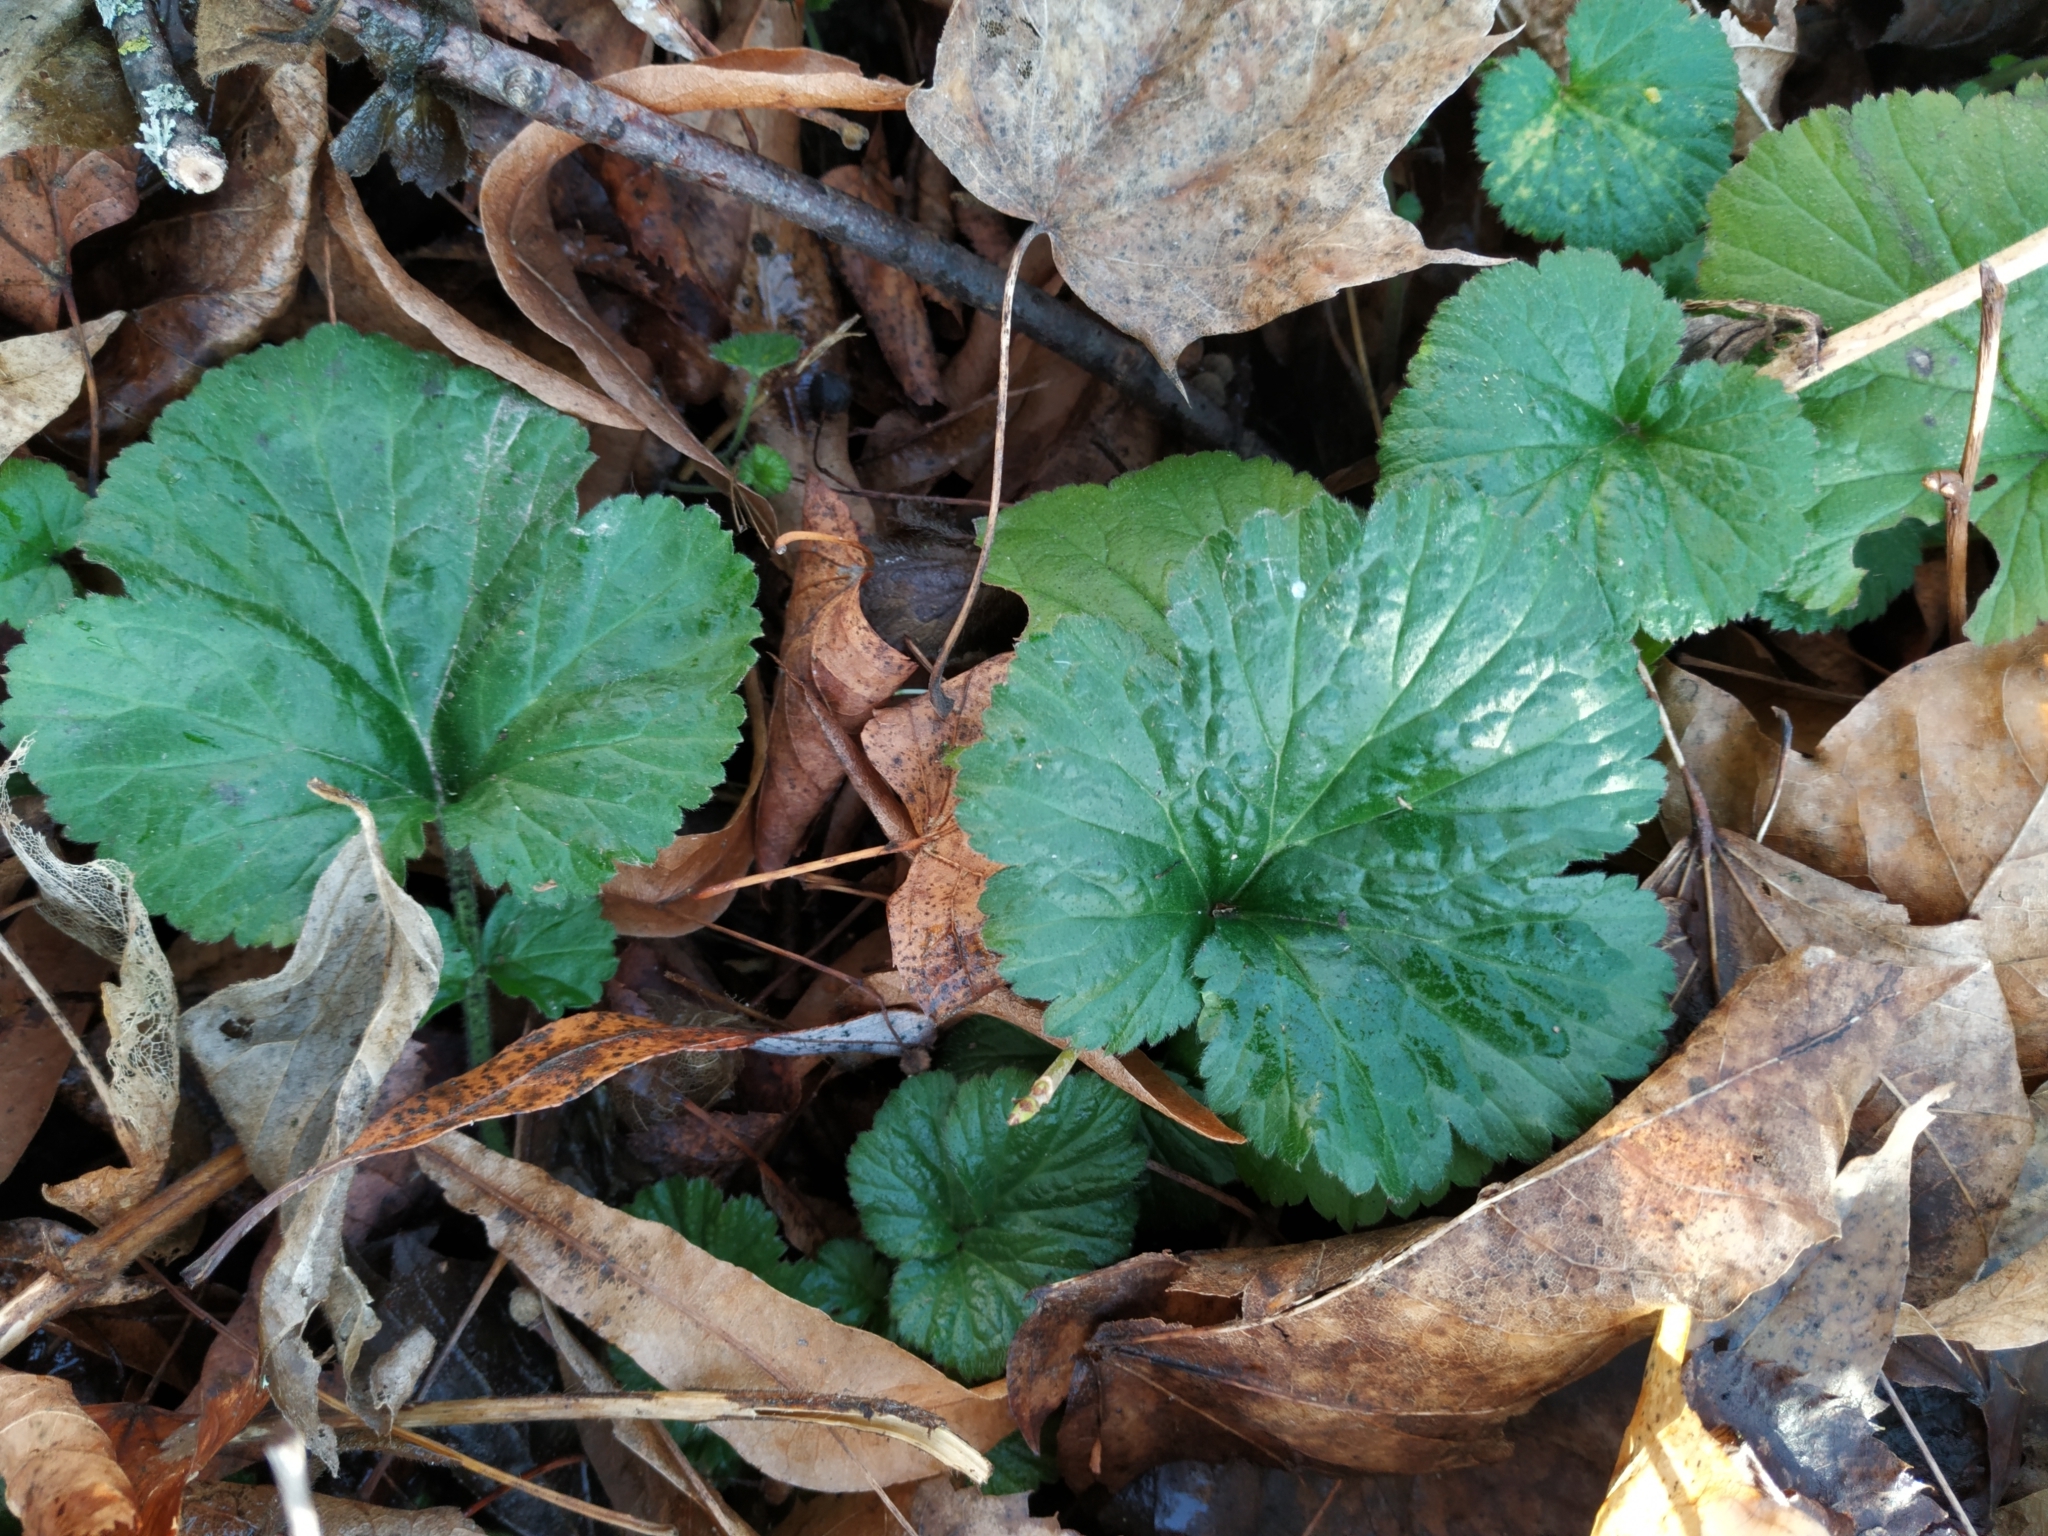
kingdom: Plantae
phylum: Tracheophyta
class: Magnoliopsida
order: Rosales
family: Rosaceae
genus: Geum
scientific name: Geum urbanum
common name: Wood avens
